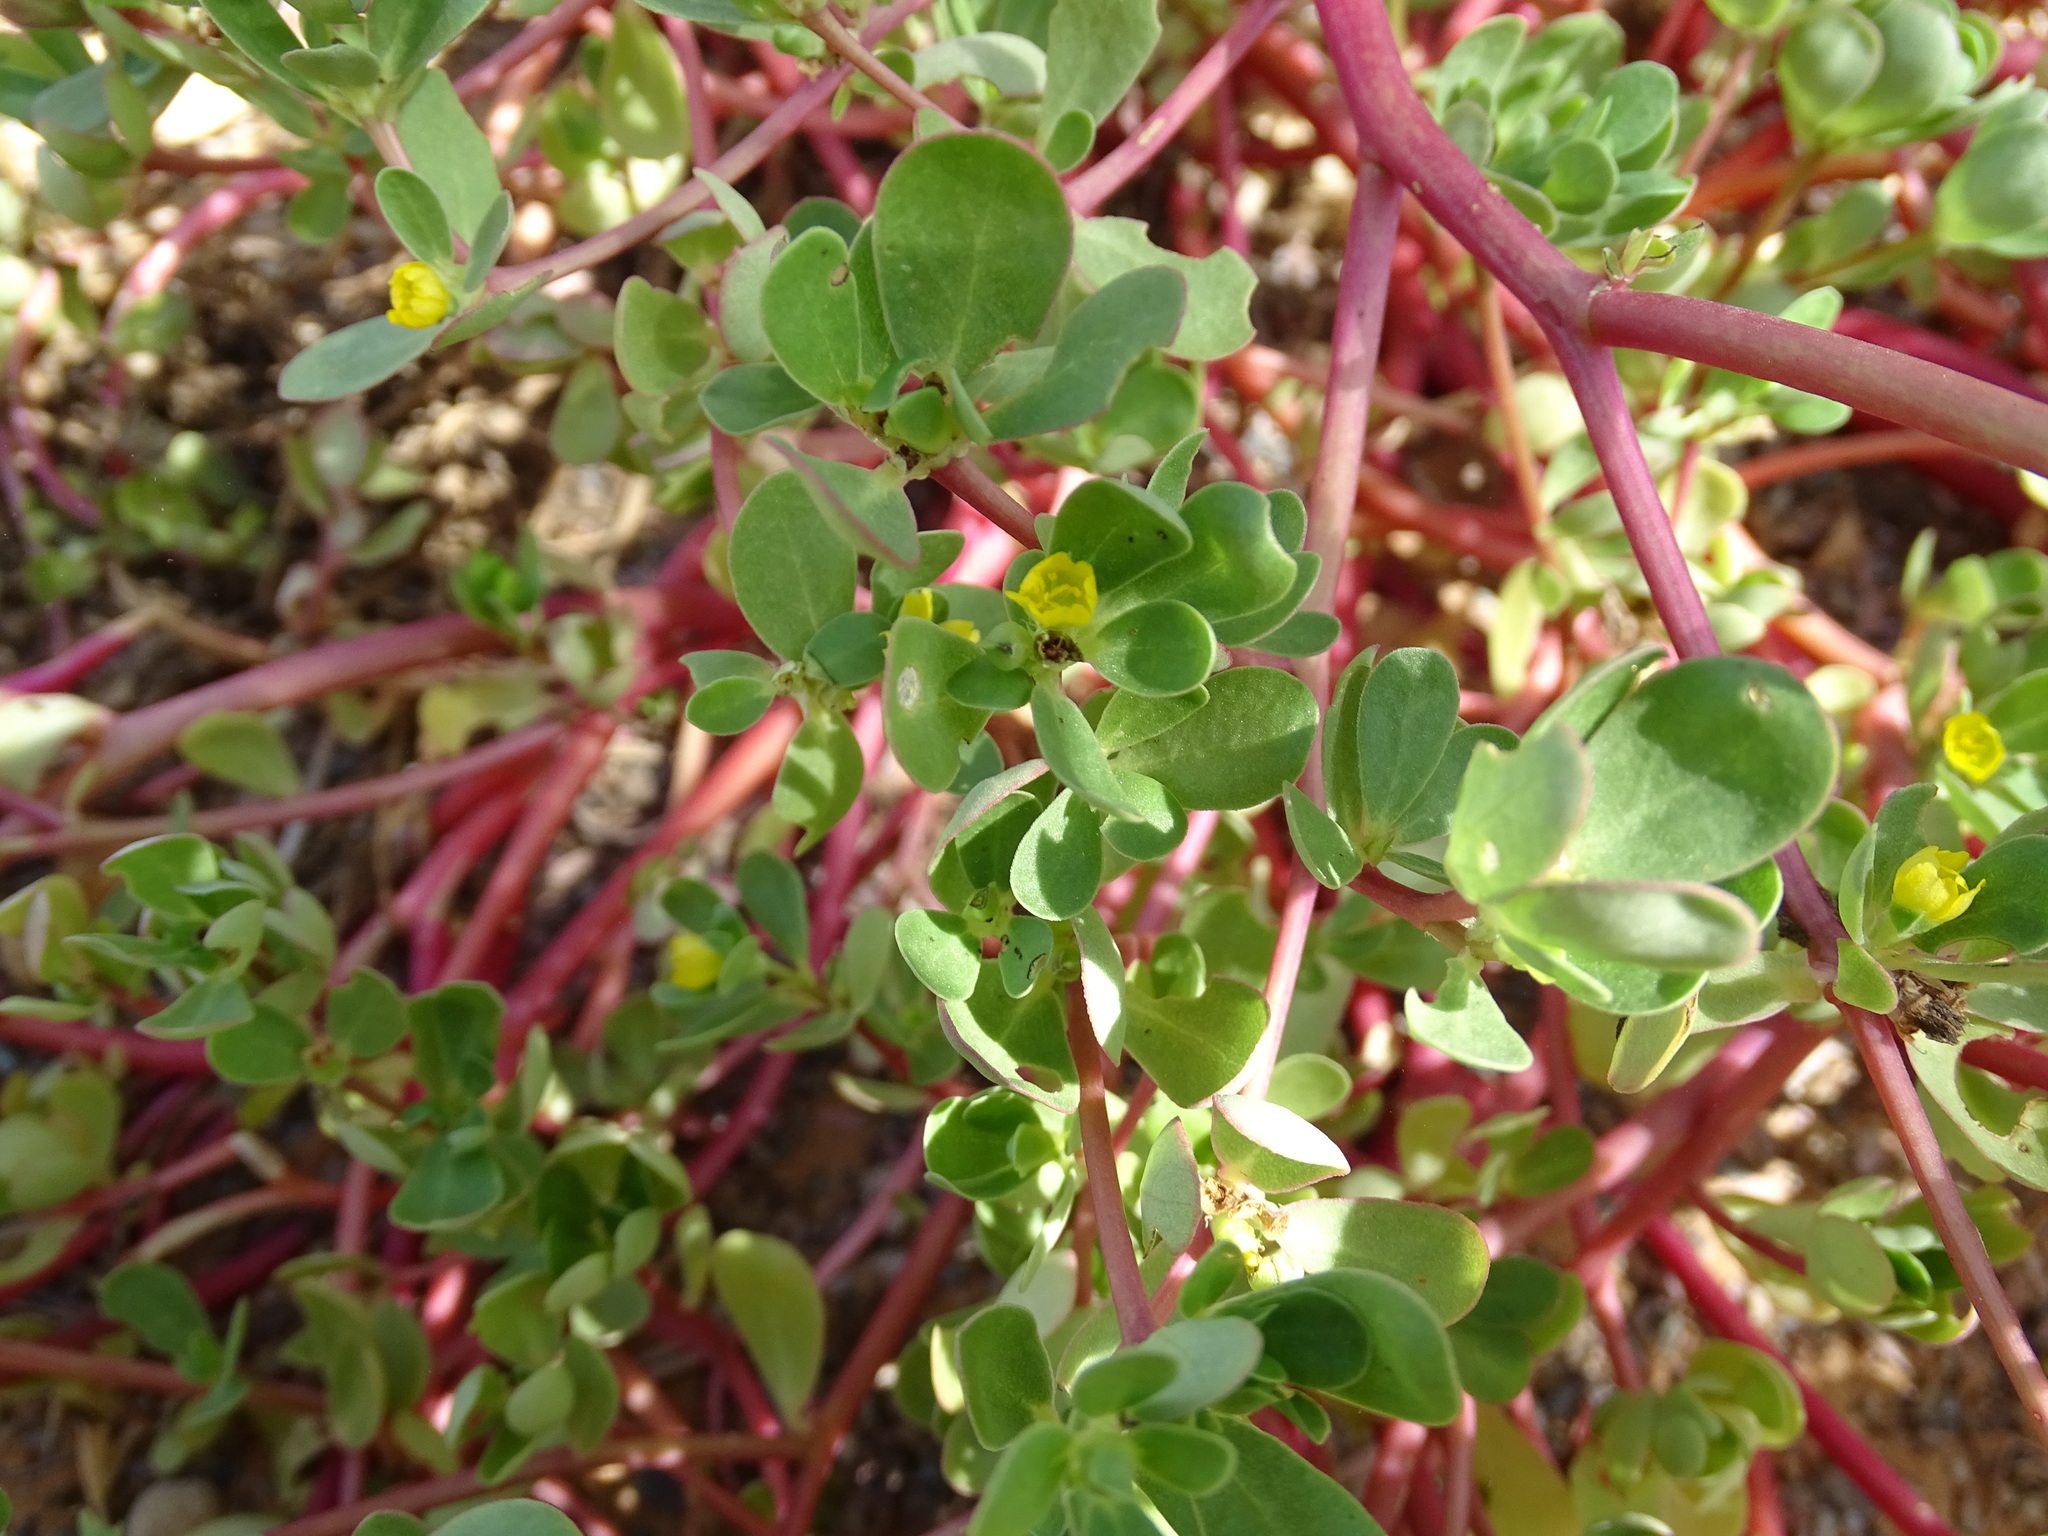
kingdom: Plantae
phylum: Tracheophyta
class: Magnoliopsida
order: Caryophyllales
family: Portulacaceae
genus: Portulaca
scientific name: Portulaca oleracea
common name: Common purslane
